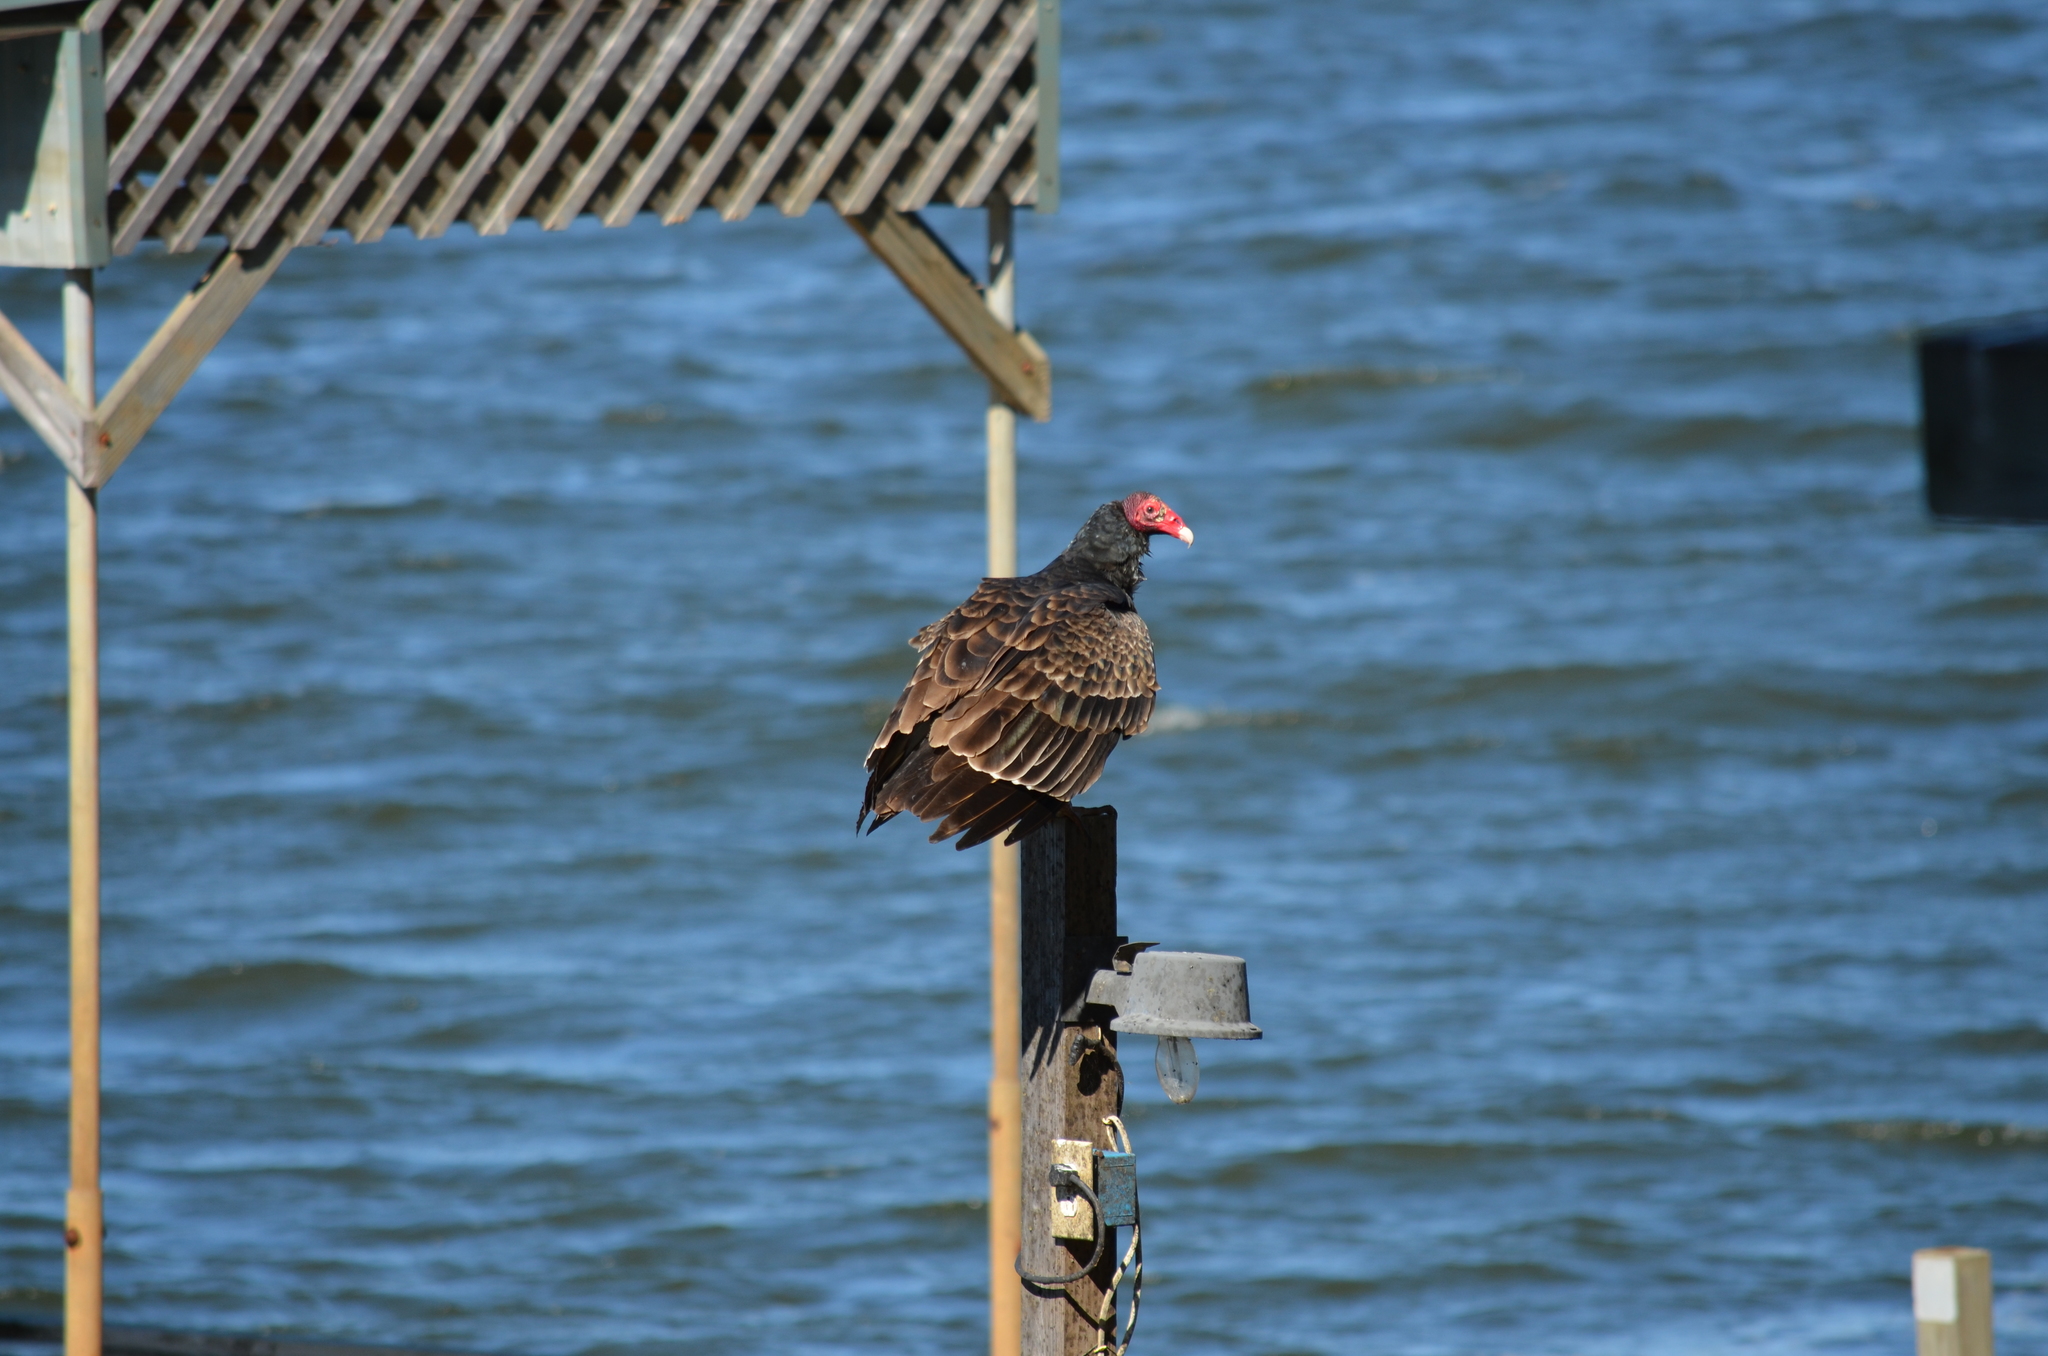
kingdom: Animalia
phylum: Chordata
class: Aves
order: Accipitriformes
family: Cathartidae
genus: Cathartes
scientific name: Cathartes aura
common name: Turkey vulture
